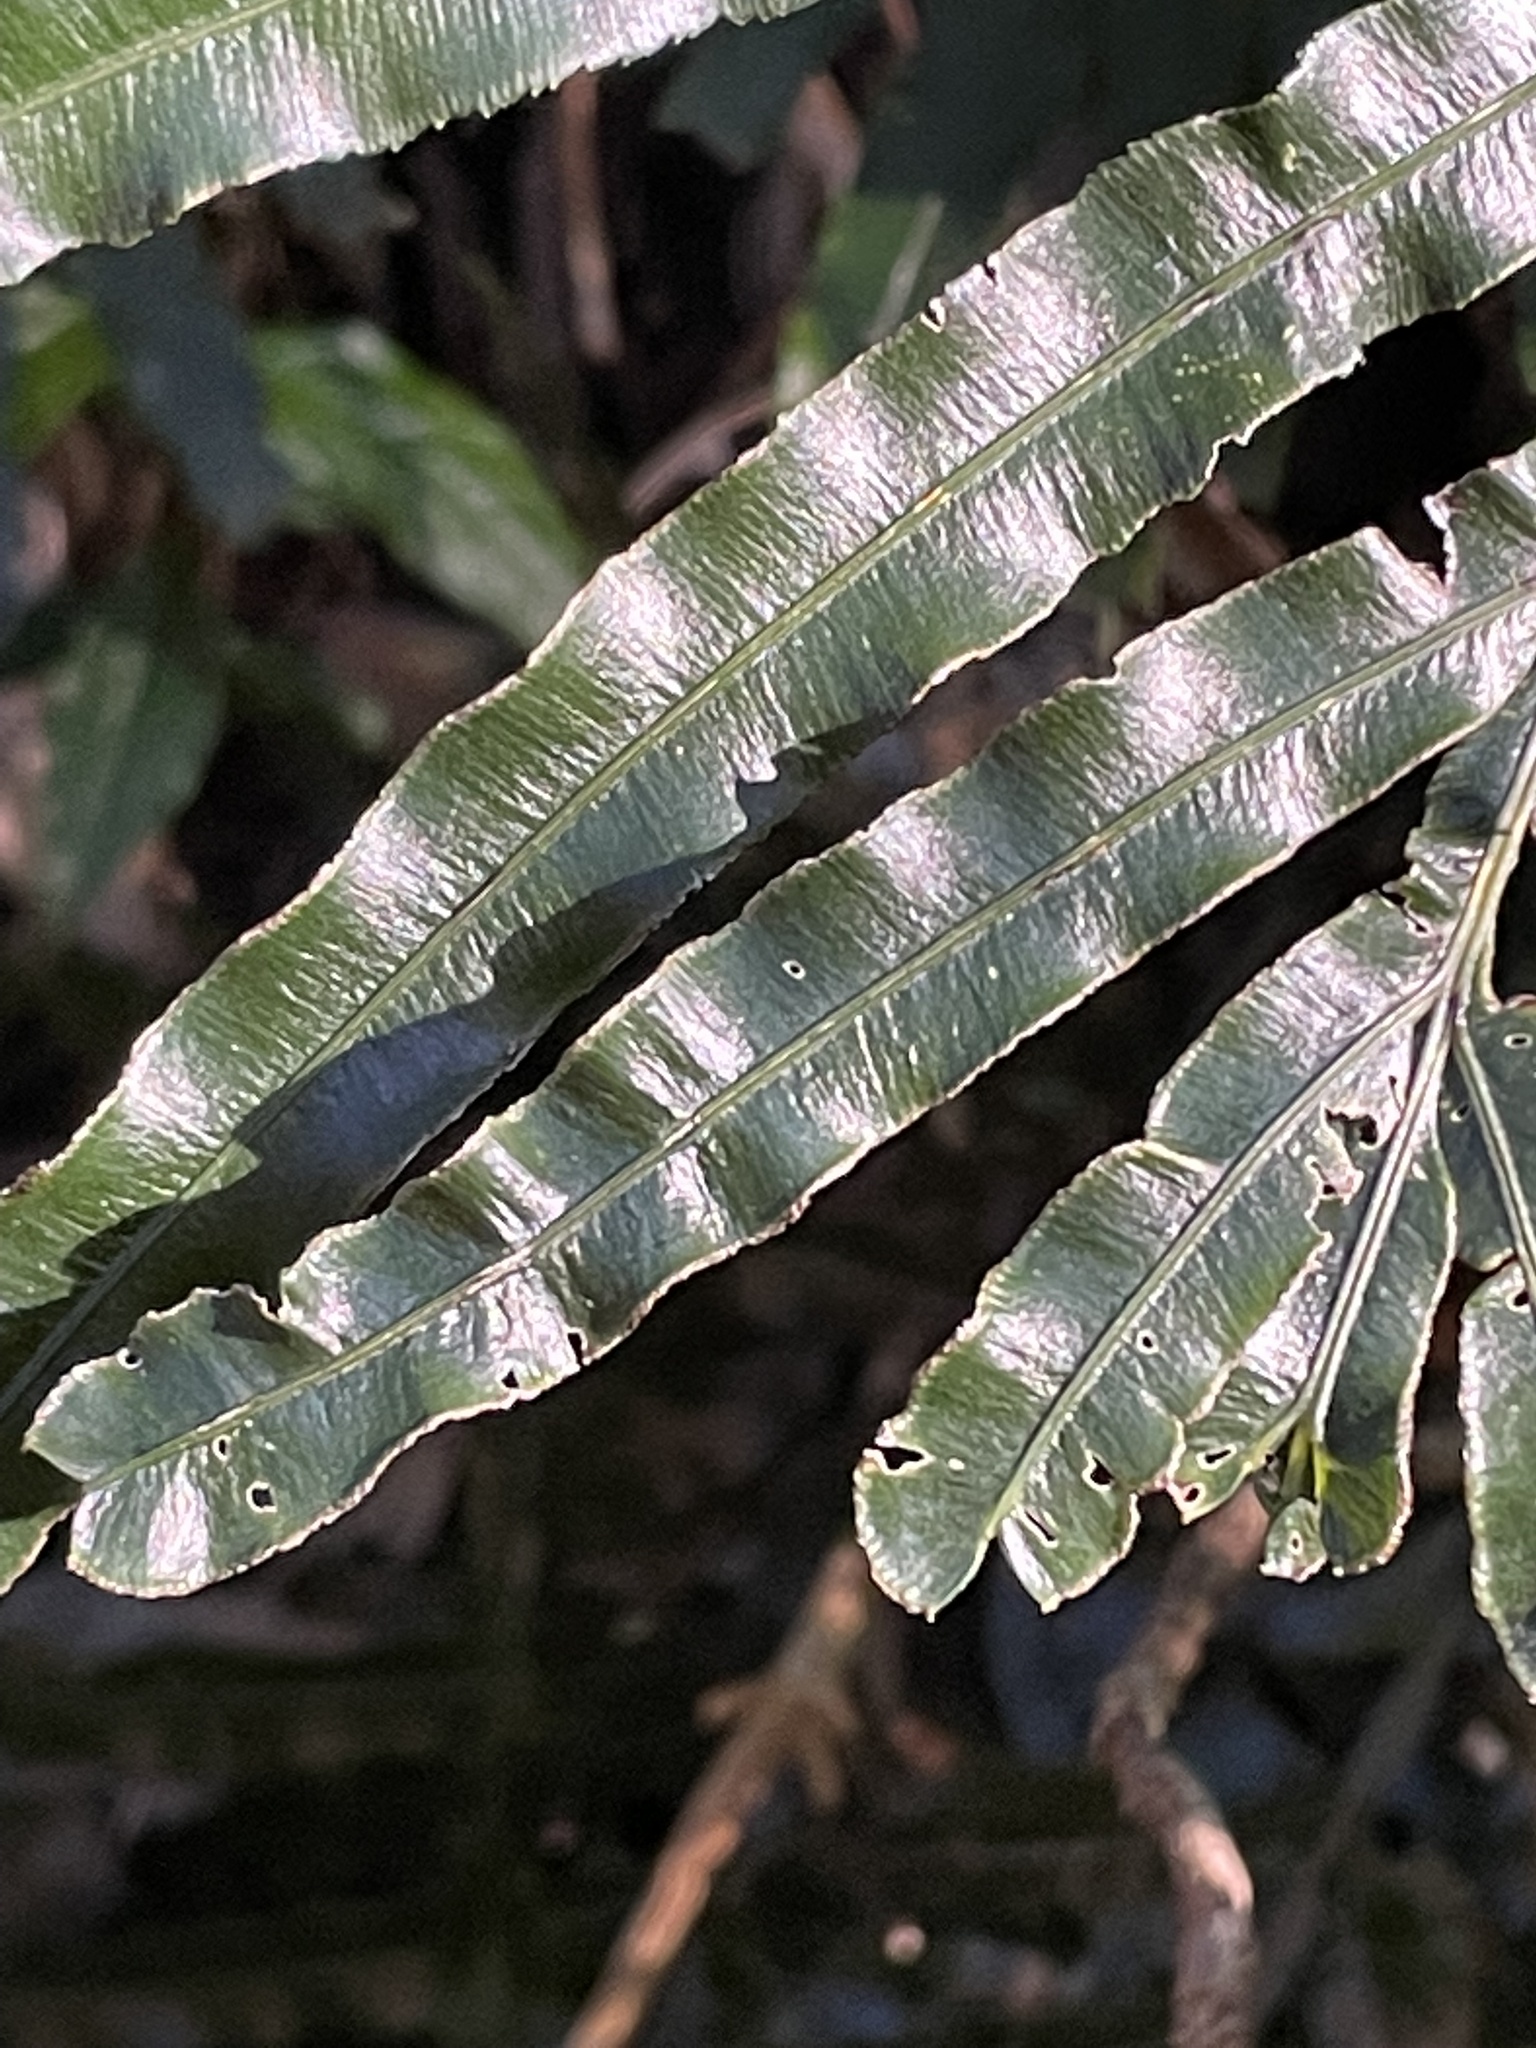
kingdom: Plantae
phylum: Tracheophyta
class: Polypodiopsida
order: Polypodiales
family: Pteridaceae
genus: Pteris
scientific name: Pteris umbrosa
